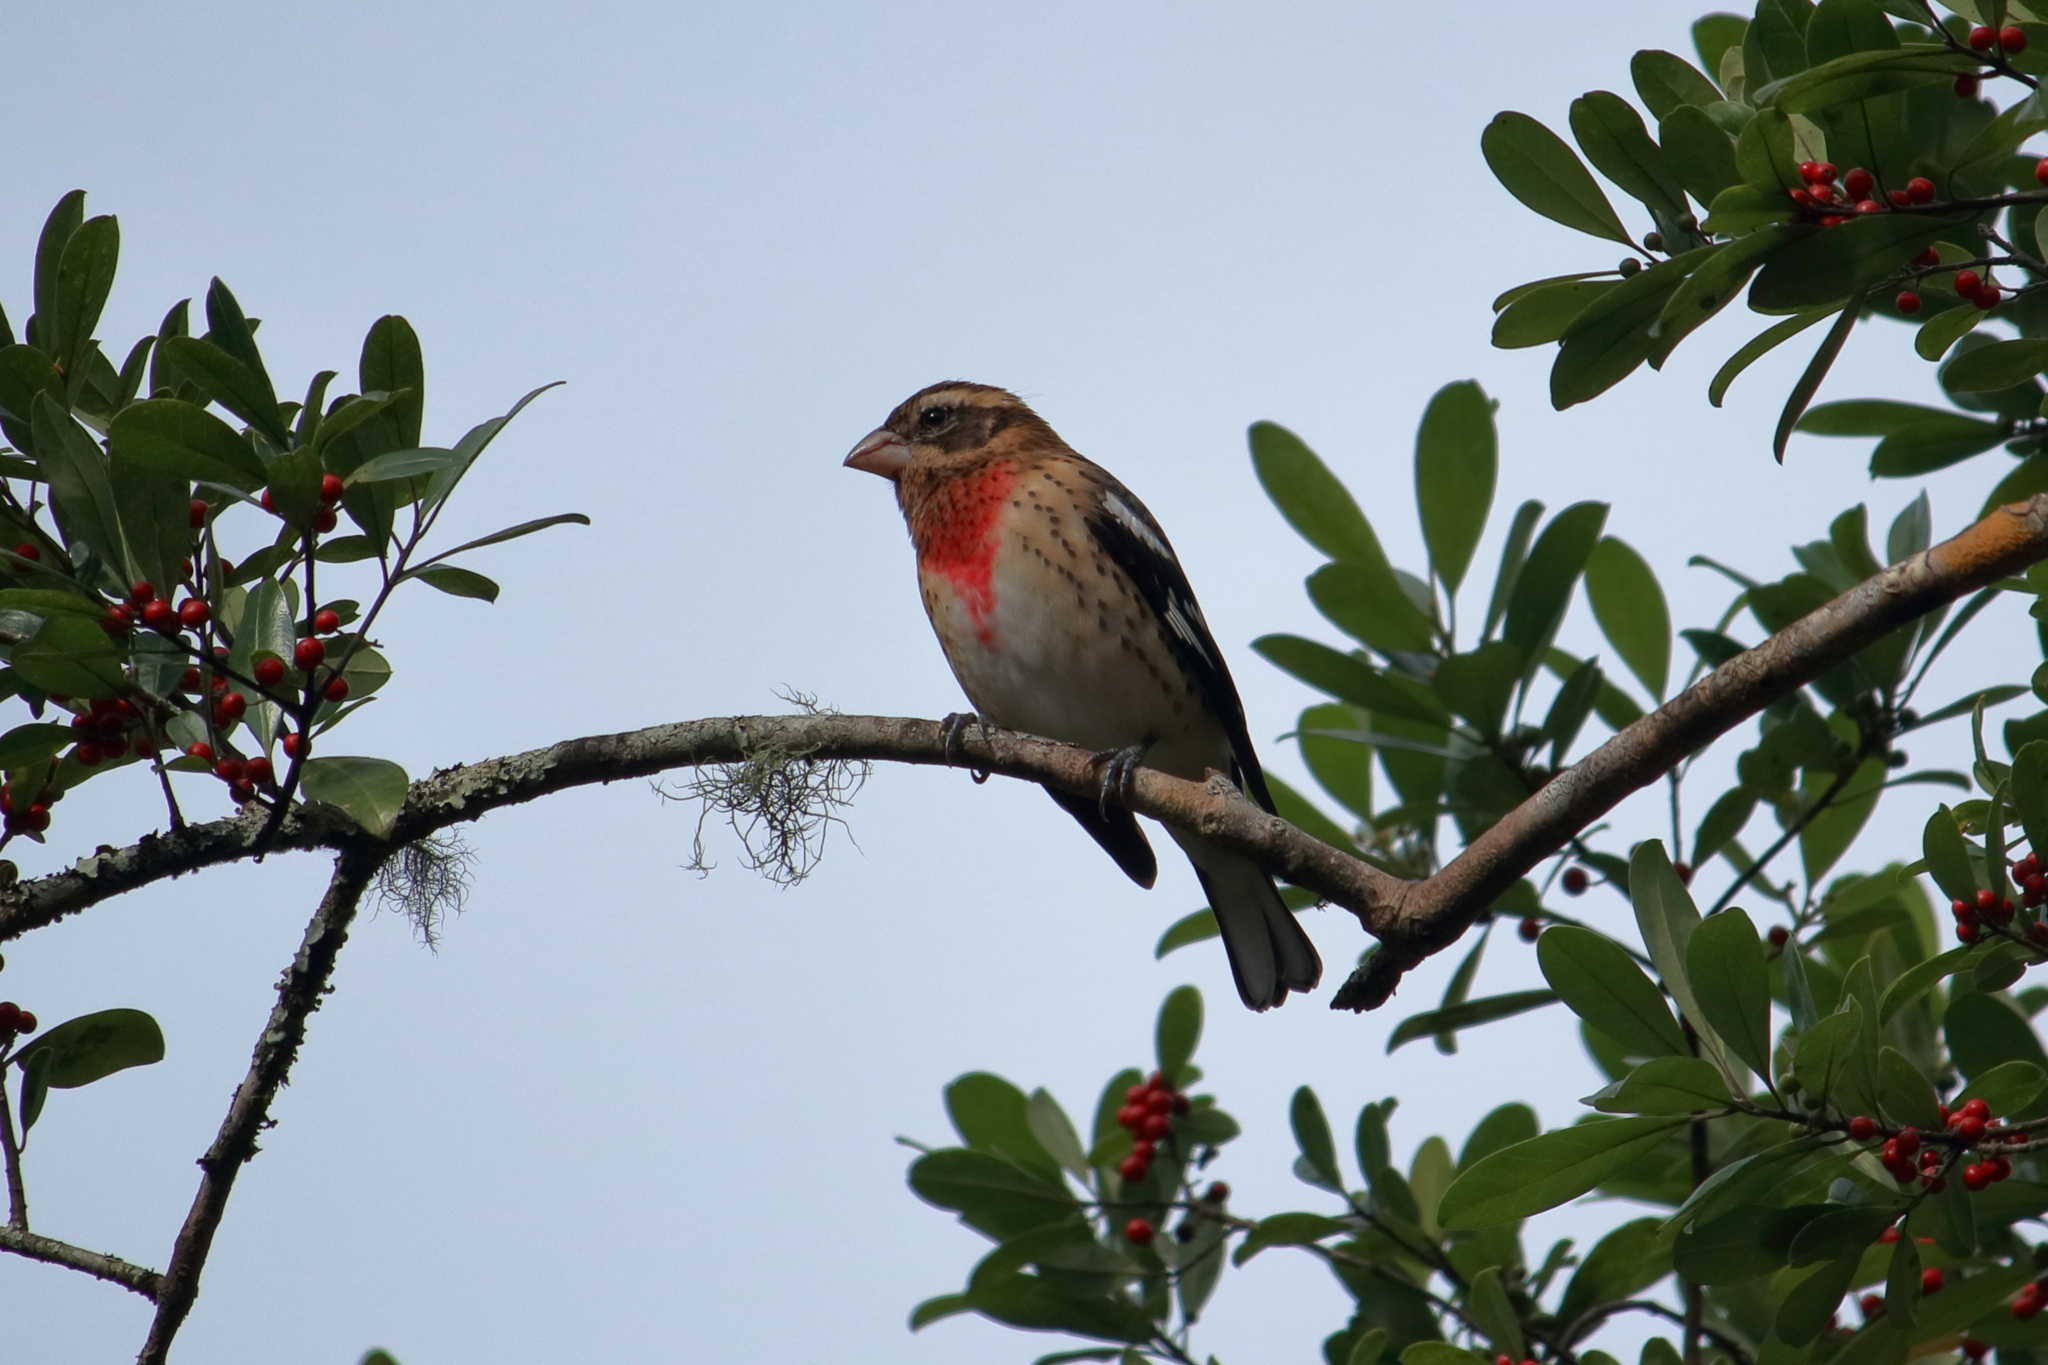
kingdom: Animalia
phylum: Chordata
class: Aves
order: Passeriformes
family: Cardinalidae
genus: Pheucticus
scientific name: Pheucticus ludovicianus
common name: Rose-breasted grosbeak
